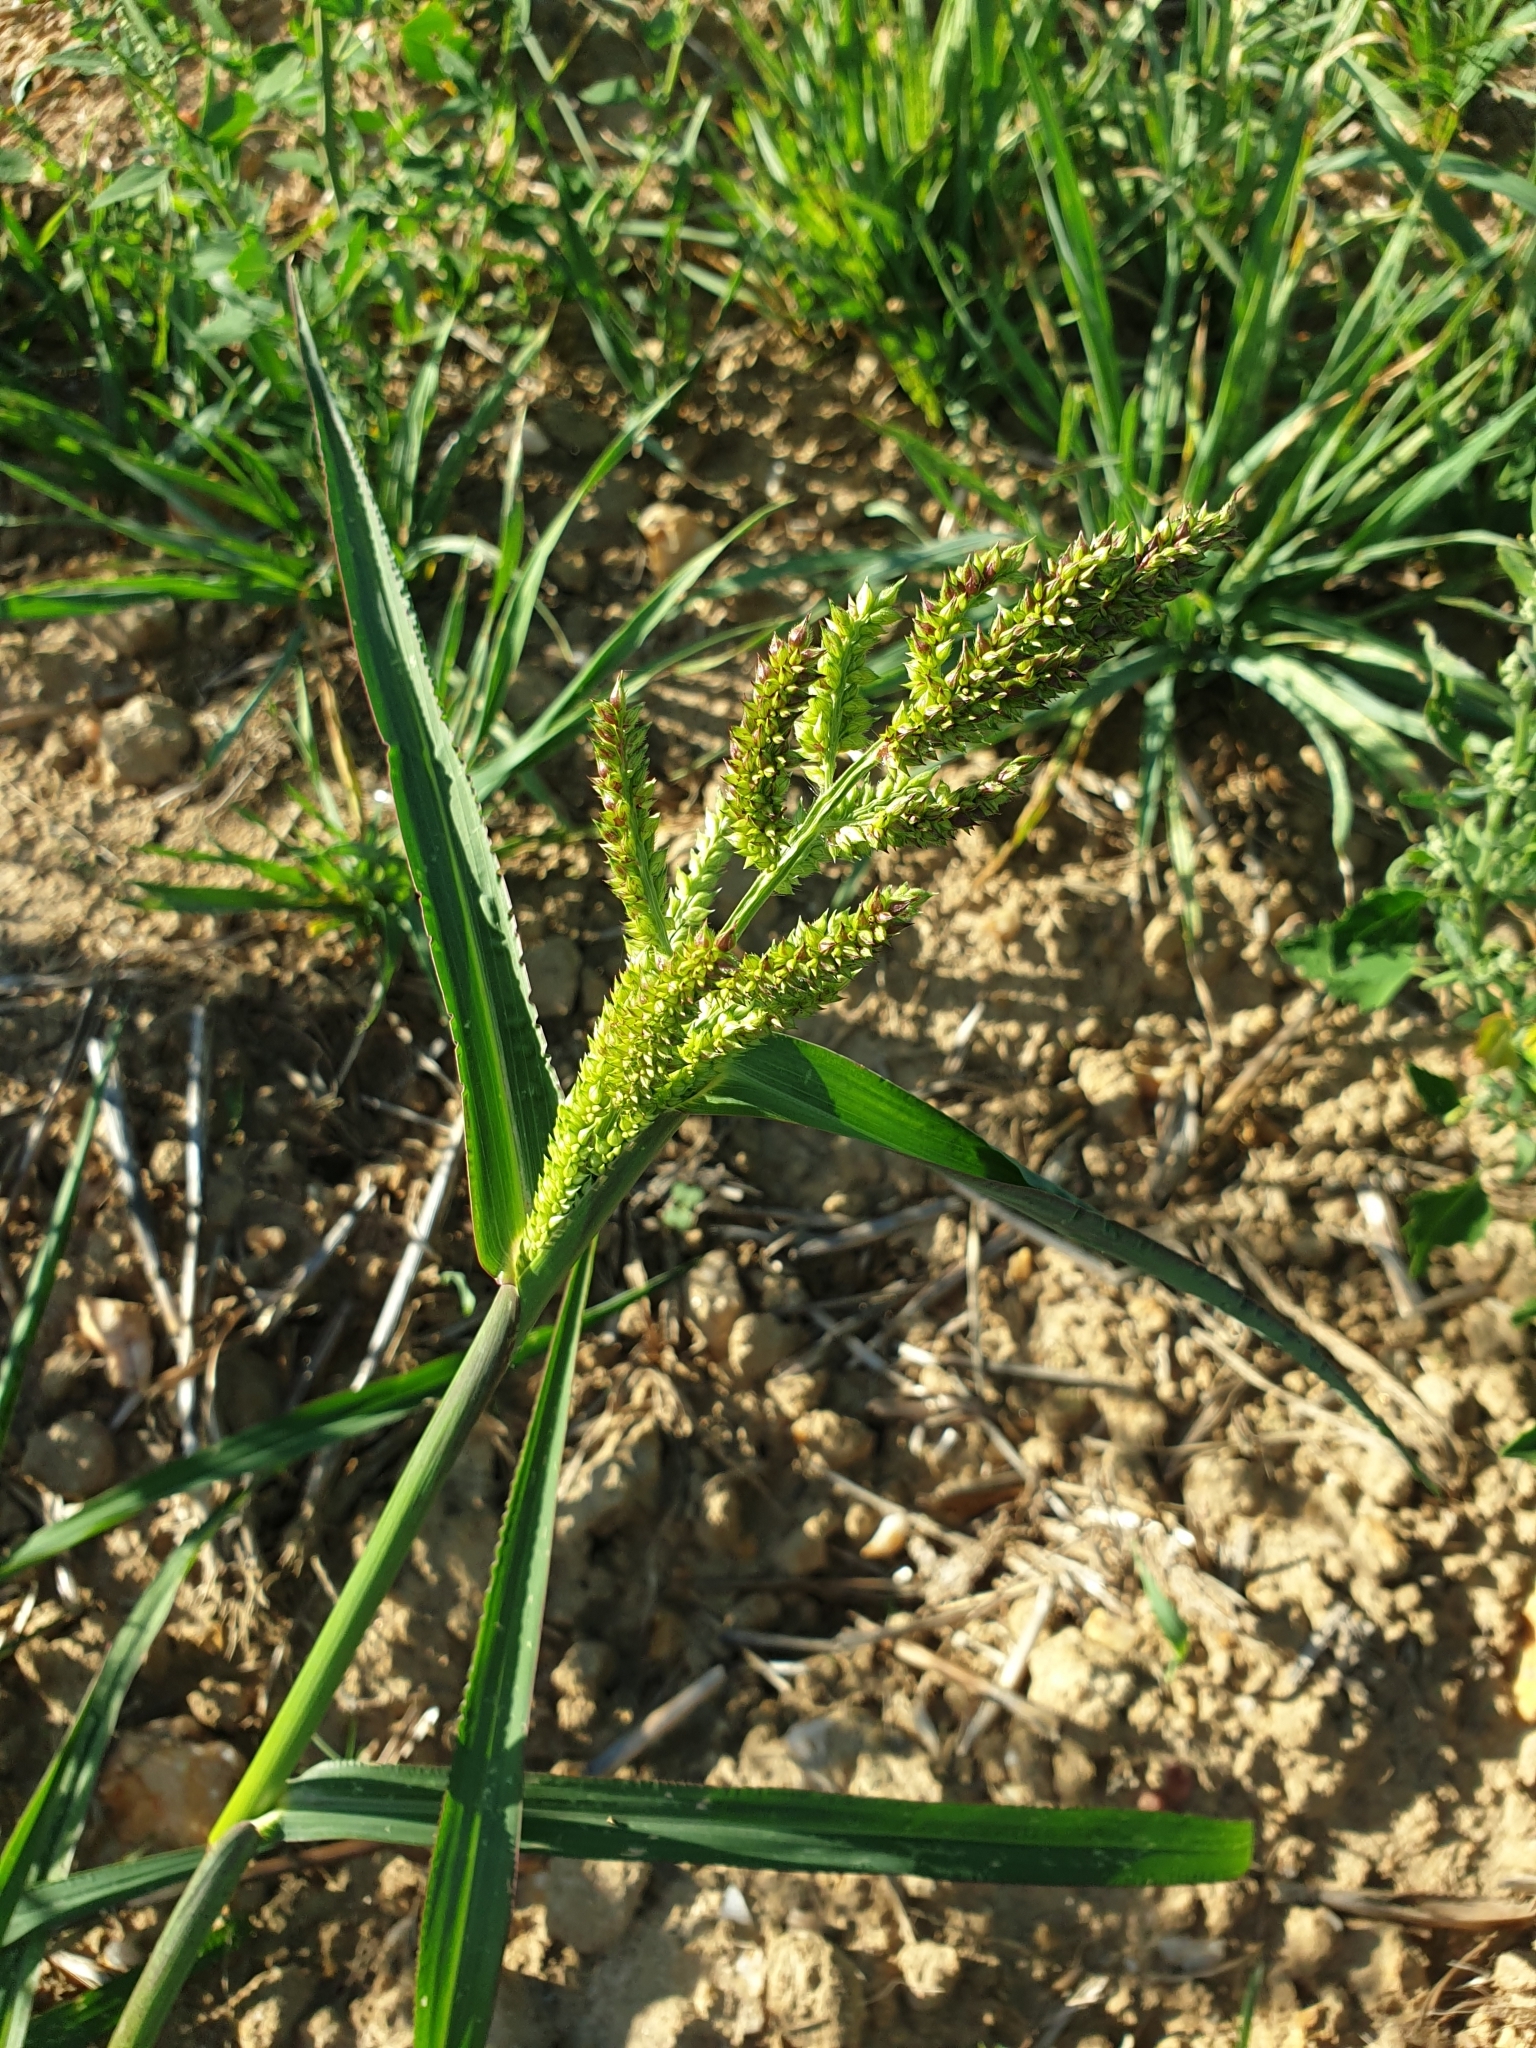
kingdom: Plantae
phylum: Tracheophyta
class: Liliopsida
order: Poales
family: Poaceae
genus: Echinochloa
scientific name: Echinochloa crus-galli
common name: Cockspur
